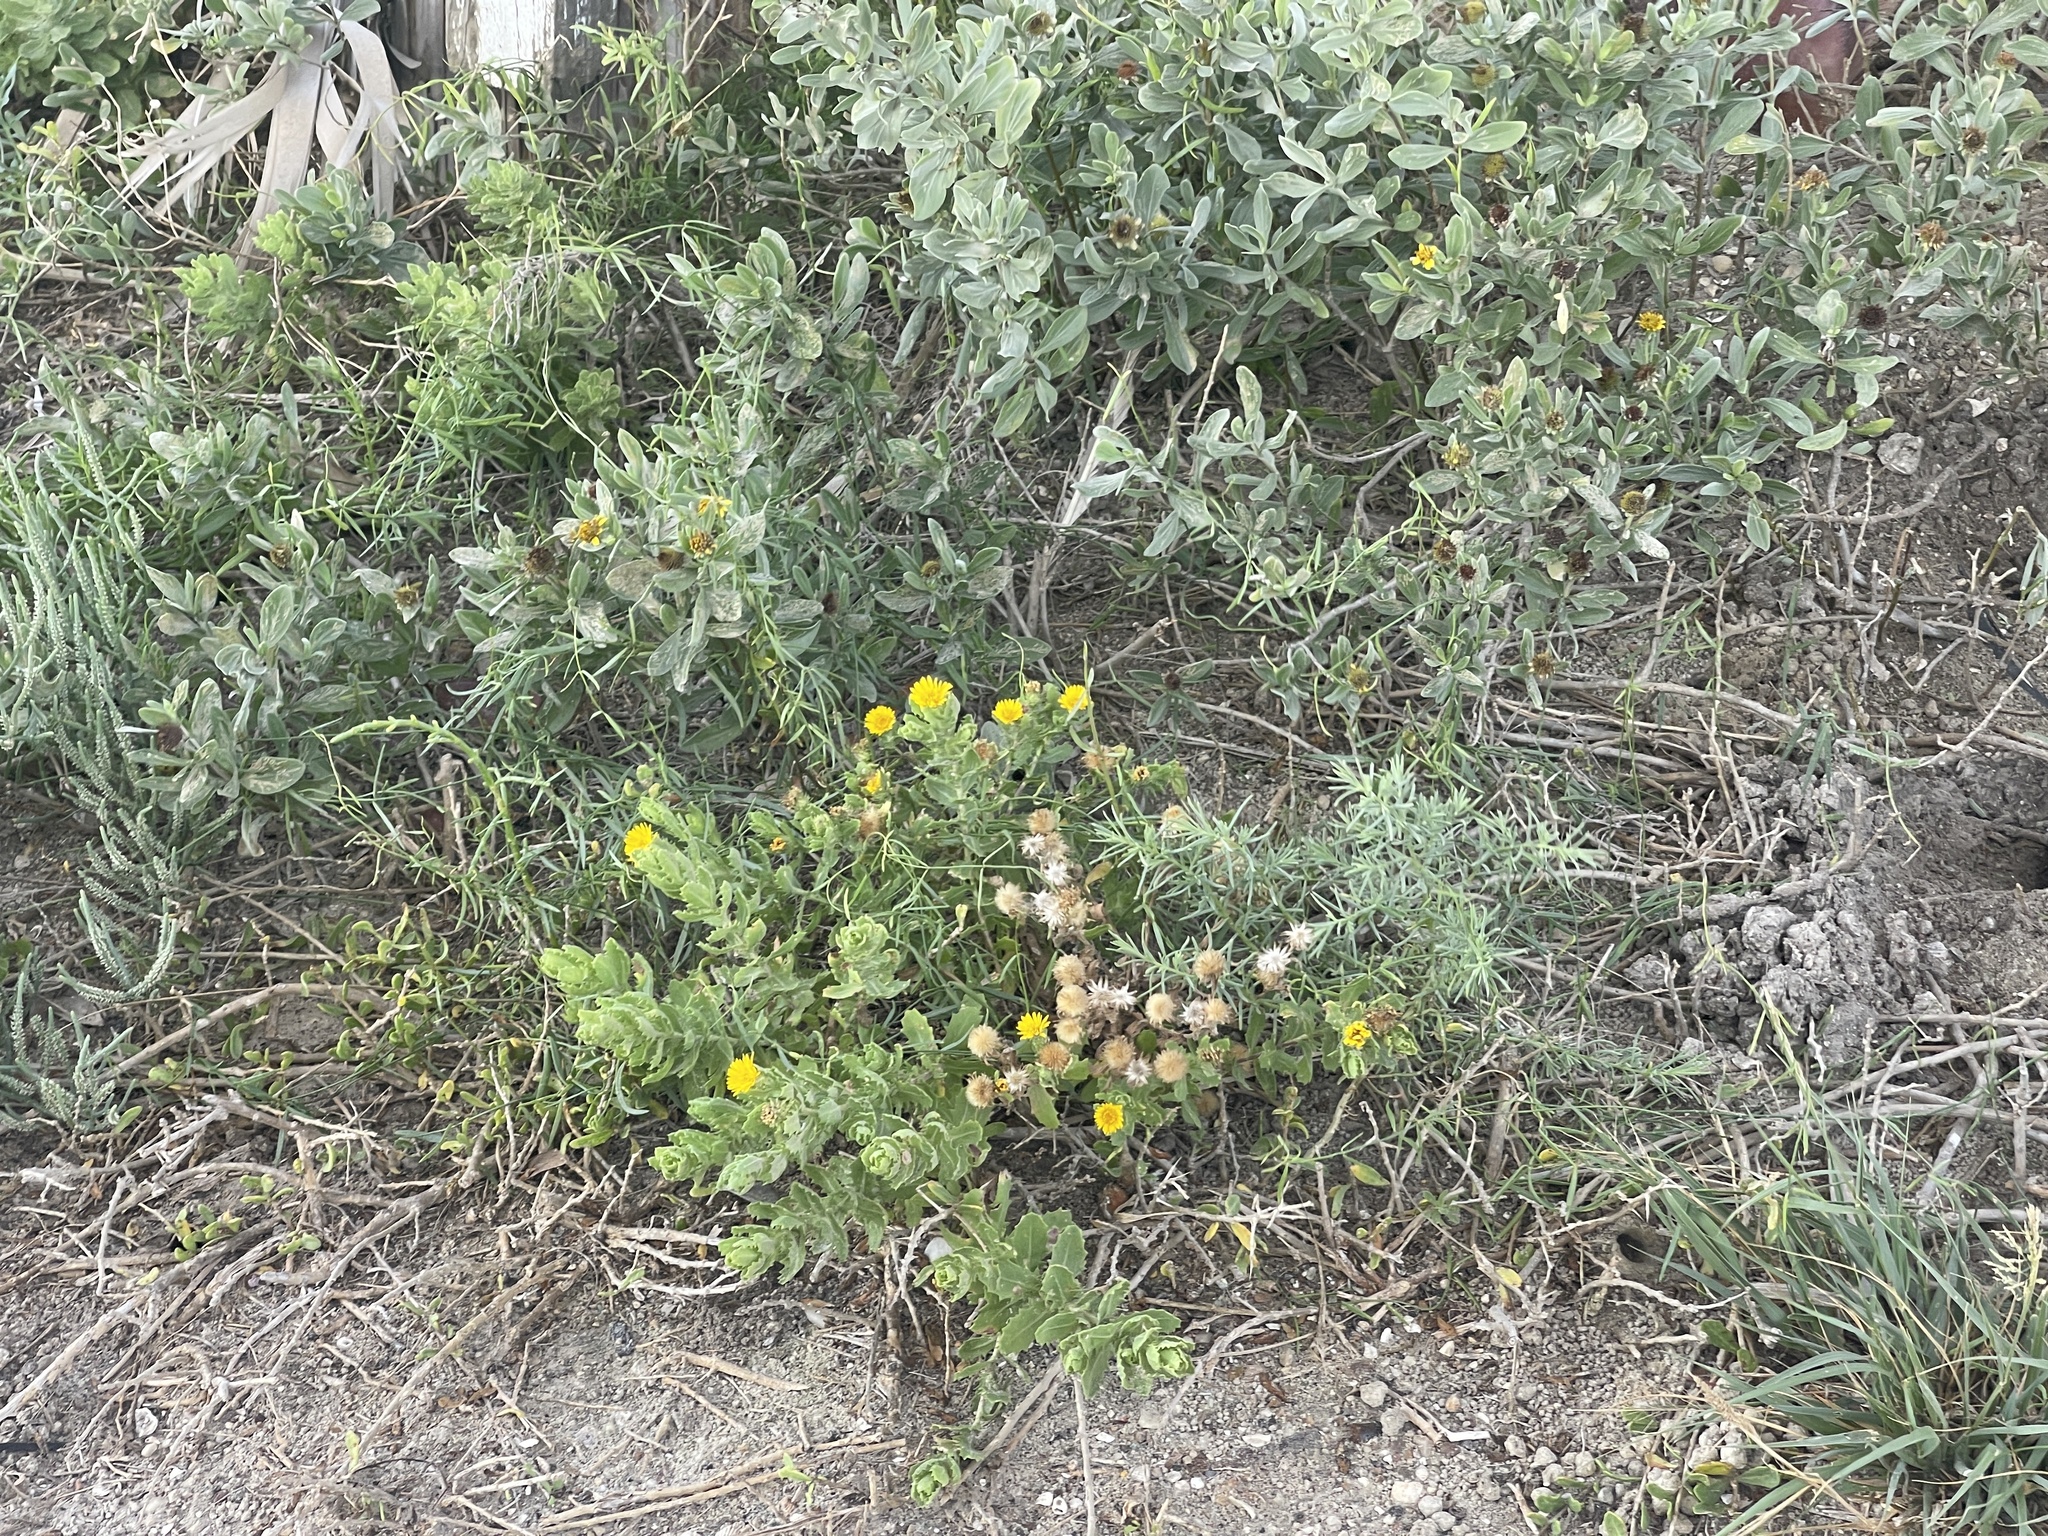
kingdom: Plantae
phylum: Tracheophyta
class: Magnoliopsida
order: Asterales
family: Asteraceae
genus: Rayjacksonia
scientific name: Rayjacksonia phyllocephala
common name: Gulf coast camphor daisy
